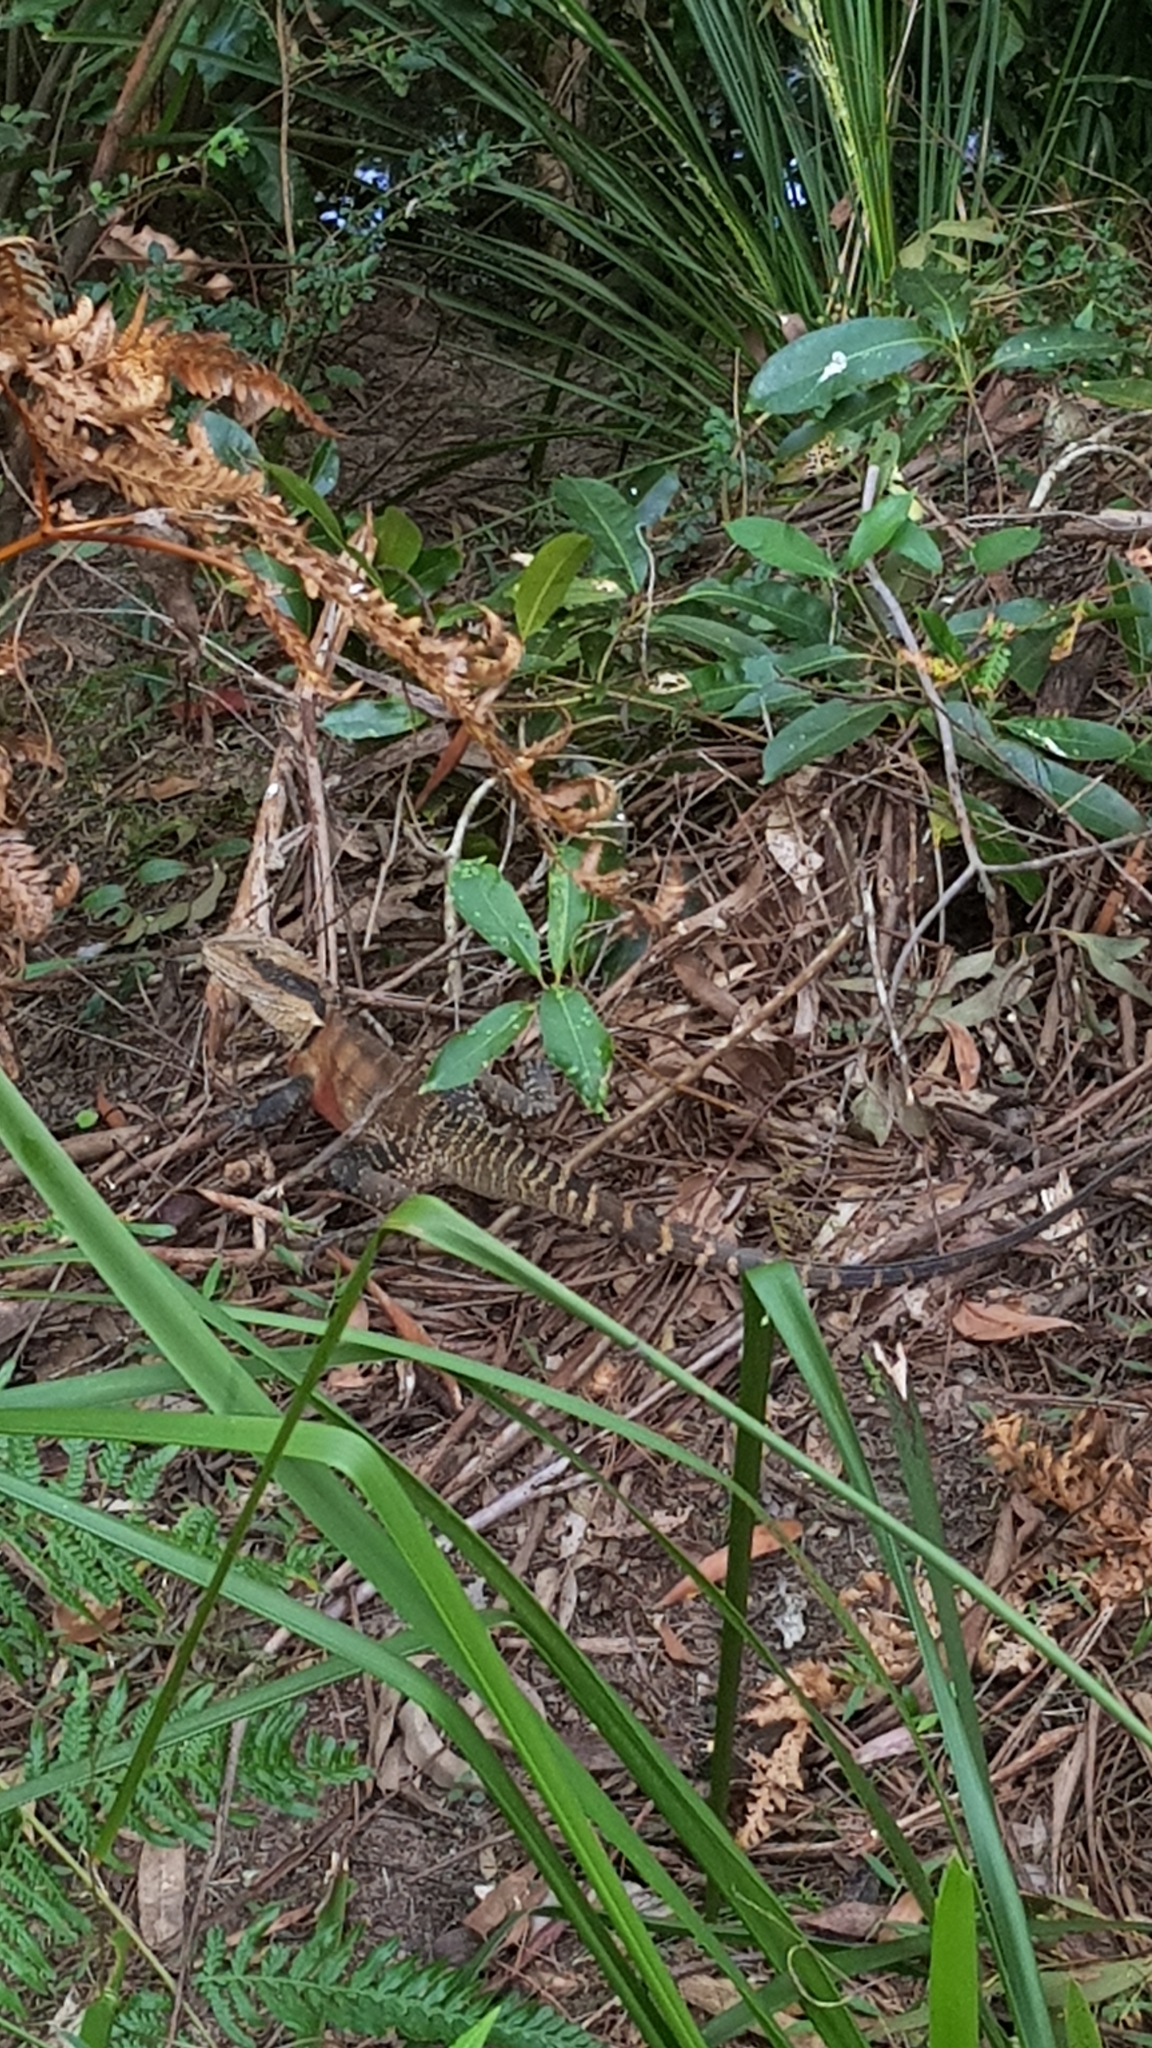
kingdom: Animalia
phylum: Chordata
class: Squamata
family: Agamidae
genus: Intellagama
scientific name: Intellagama lesueurii
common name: Eastern water dragon
